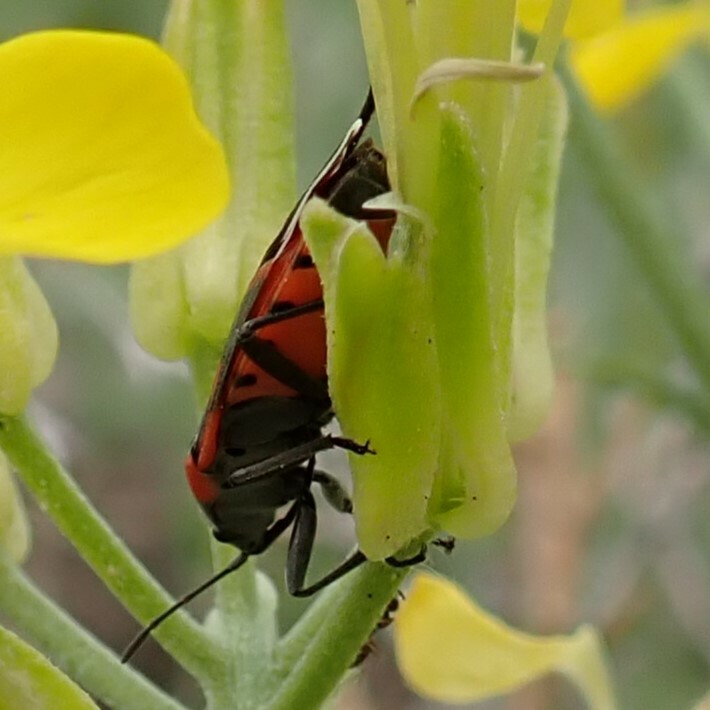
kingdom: Animalia
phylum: Arthropoda
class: Insecta
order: Hemiptera
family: Lygaeidae
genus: Lygaeus
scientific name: Lygaeus kalmii
